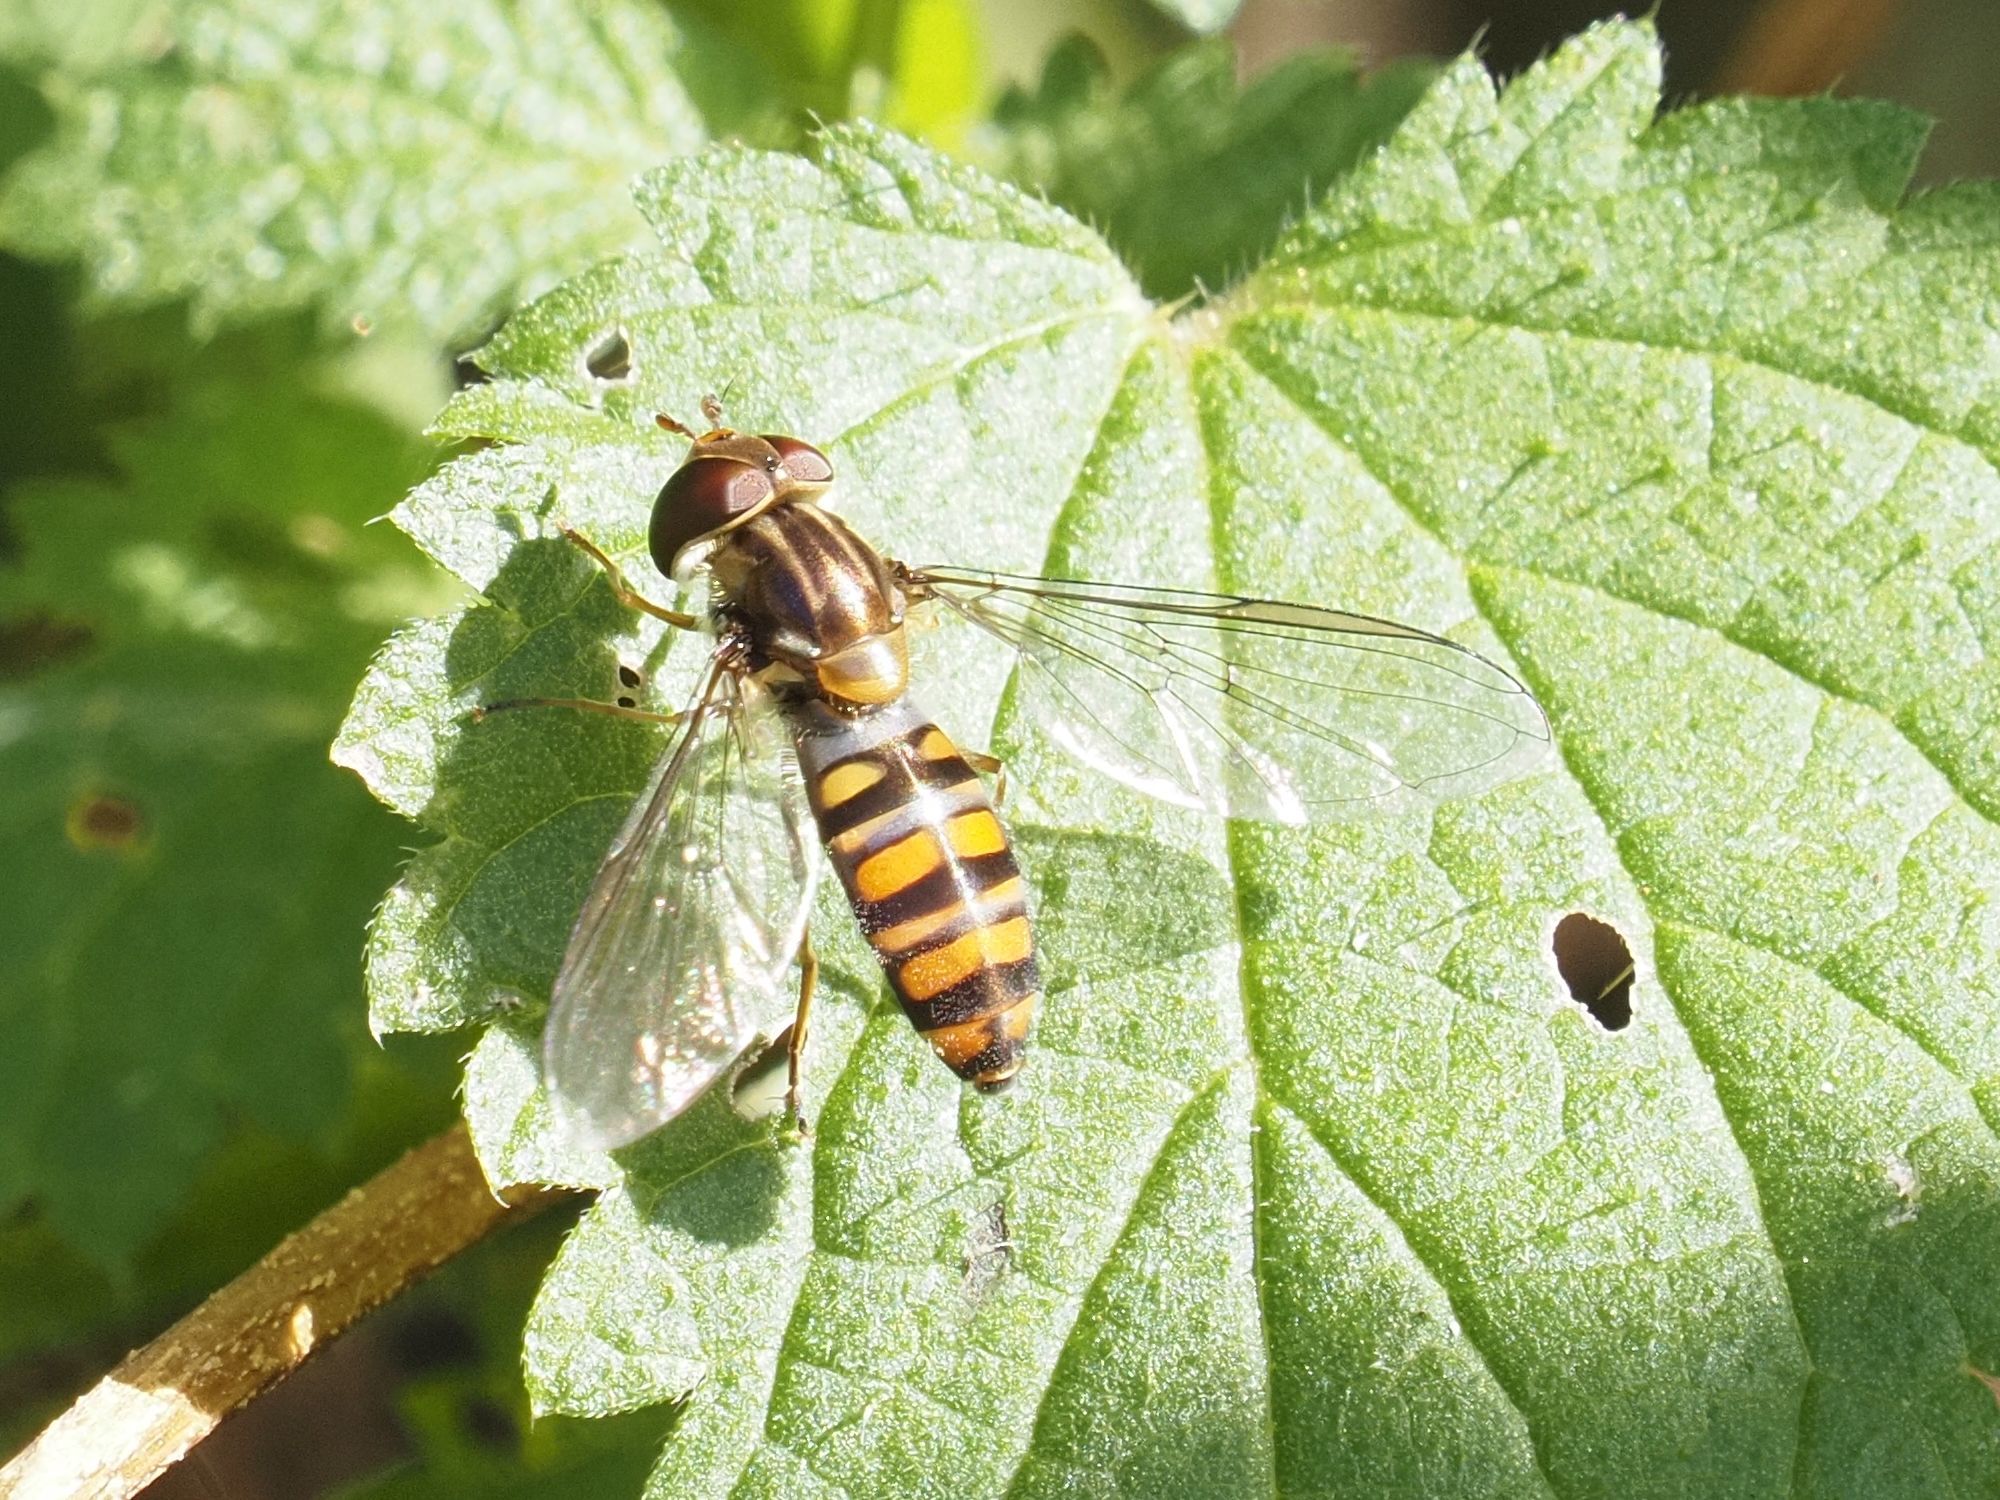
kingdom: Animalia
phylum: Arthropoda
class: Insecta
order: Diptera
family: Syrphidae
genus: Episyrphus
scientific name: Episyrphus balteatus
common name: Marmalade hoverfly
